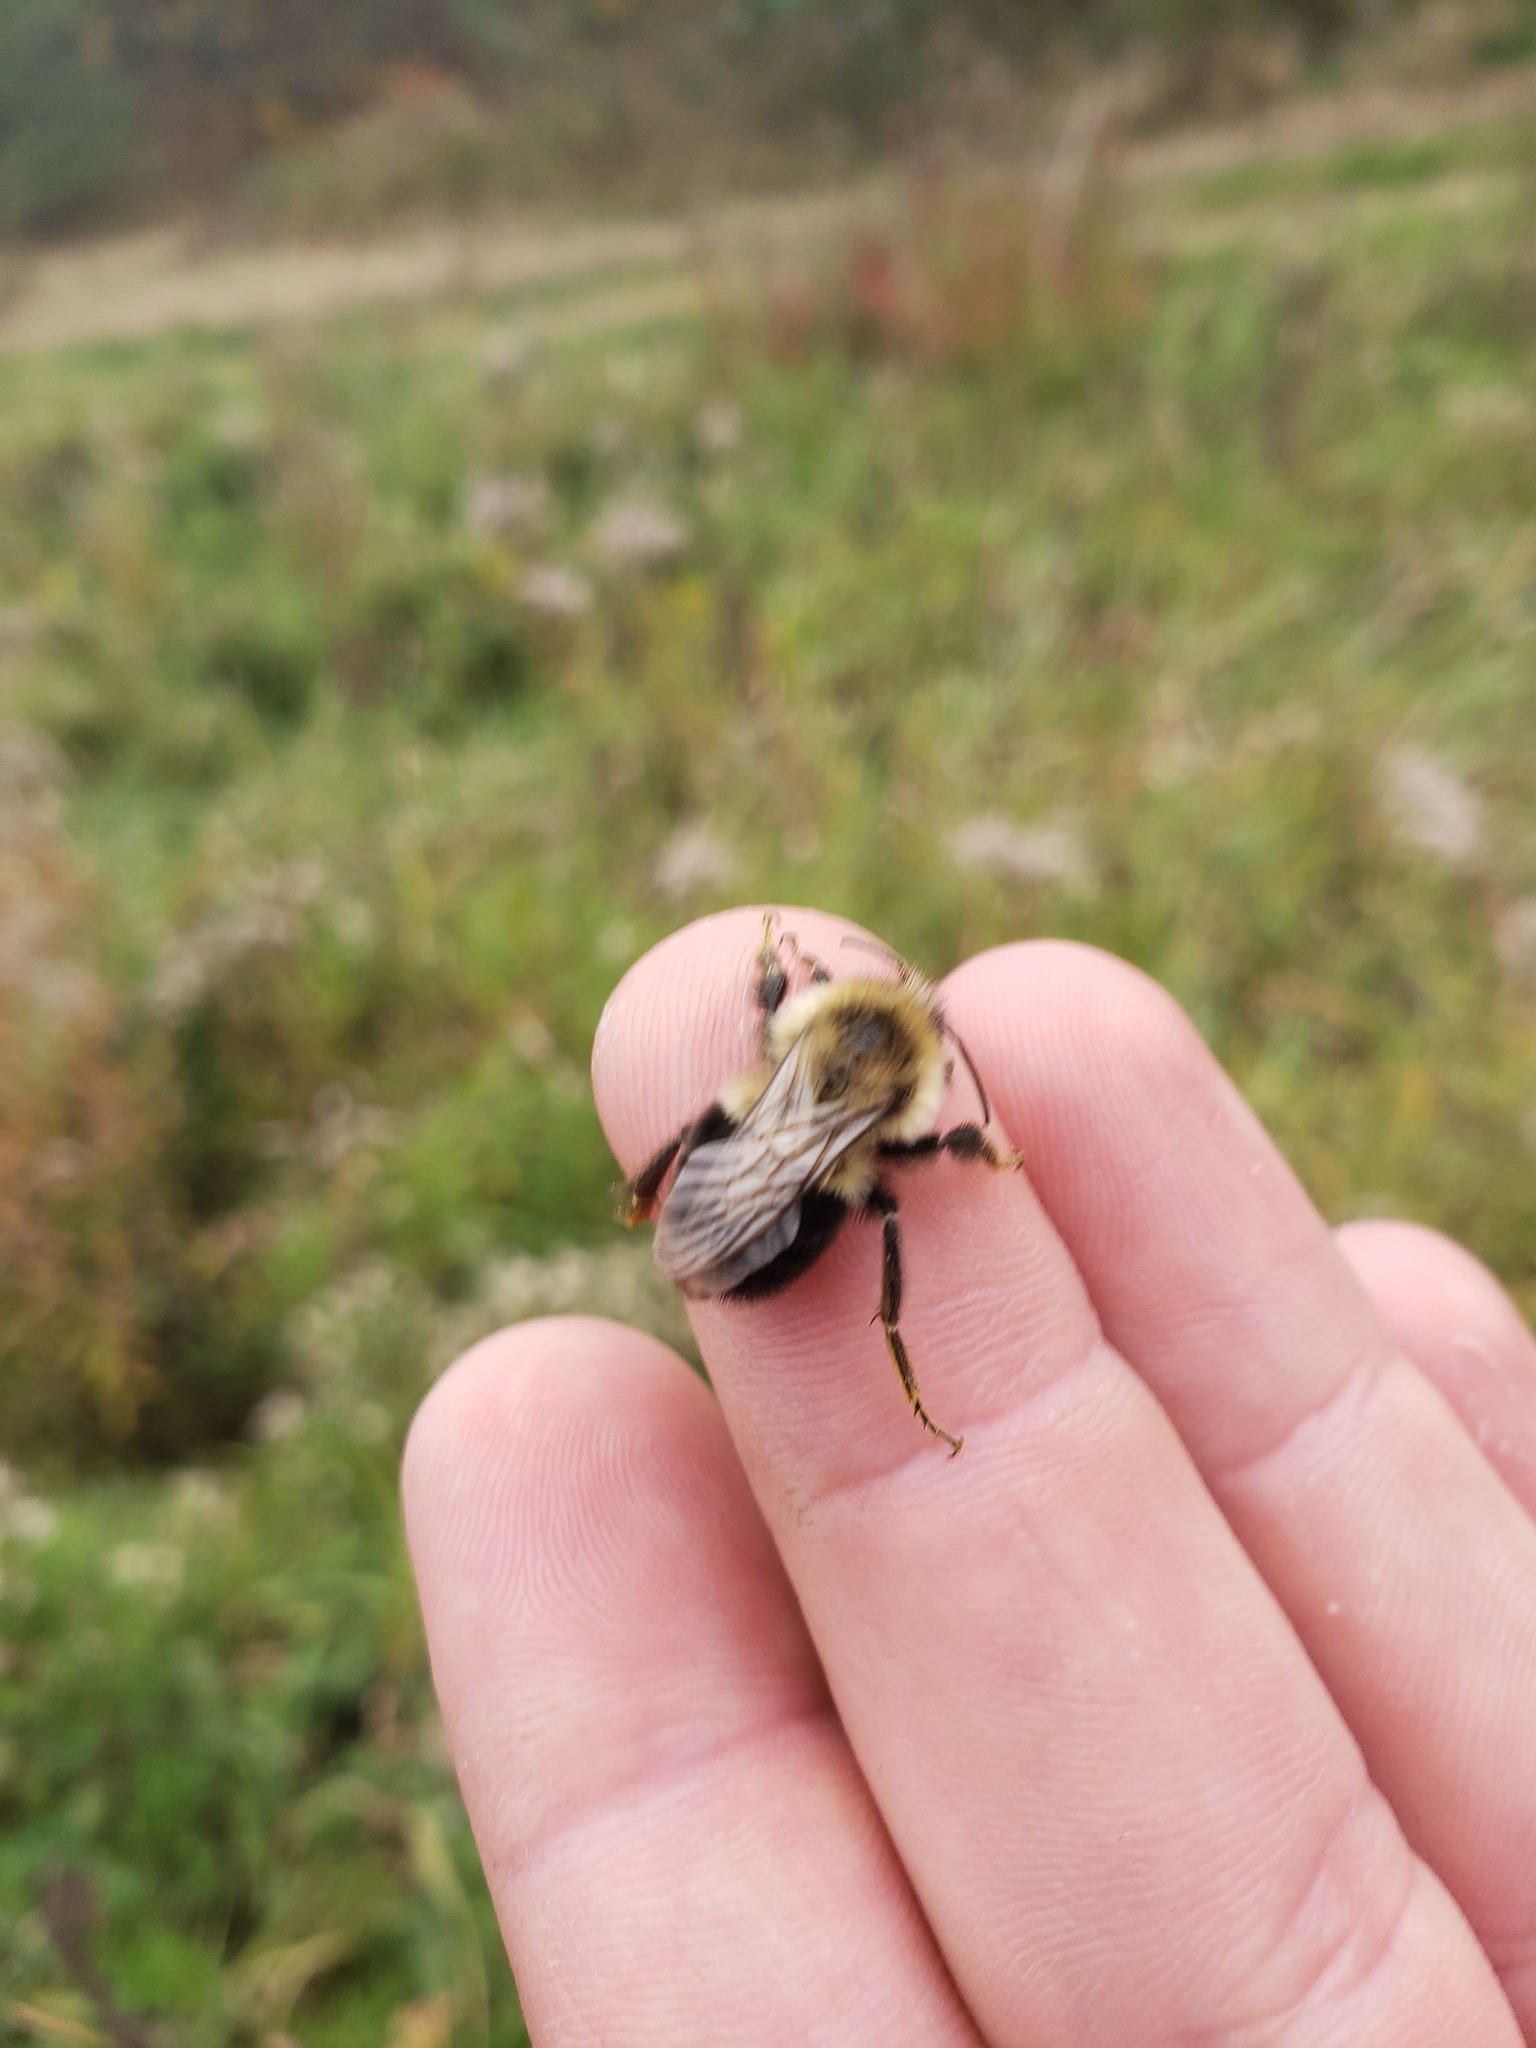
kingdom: Animalia
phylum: Arthropoda
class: Insecta
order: Hymenoptera
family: Apidae
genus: Bombus
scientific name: Bombus impatiens
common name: Common eastern bumble bee
